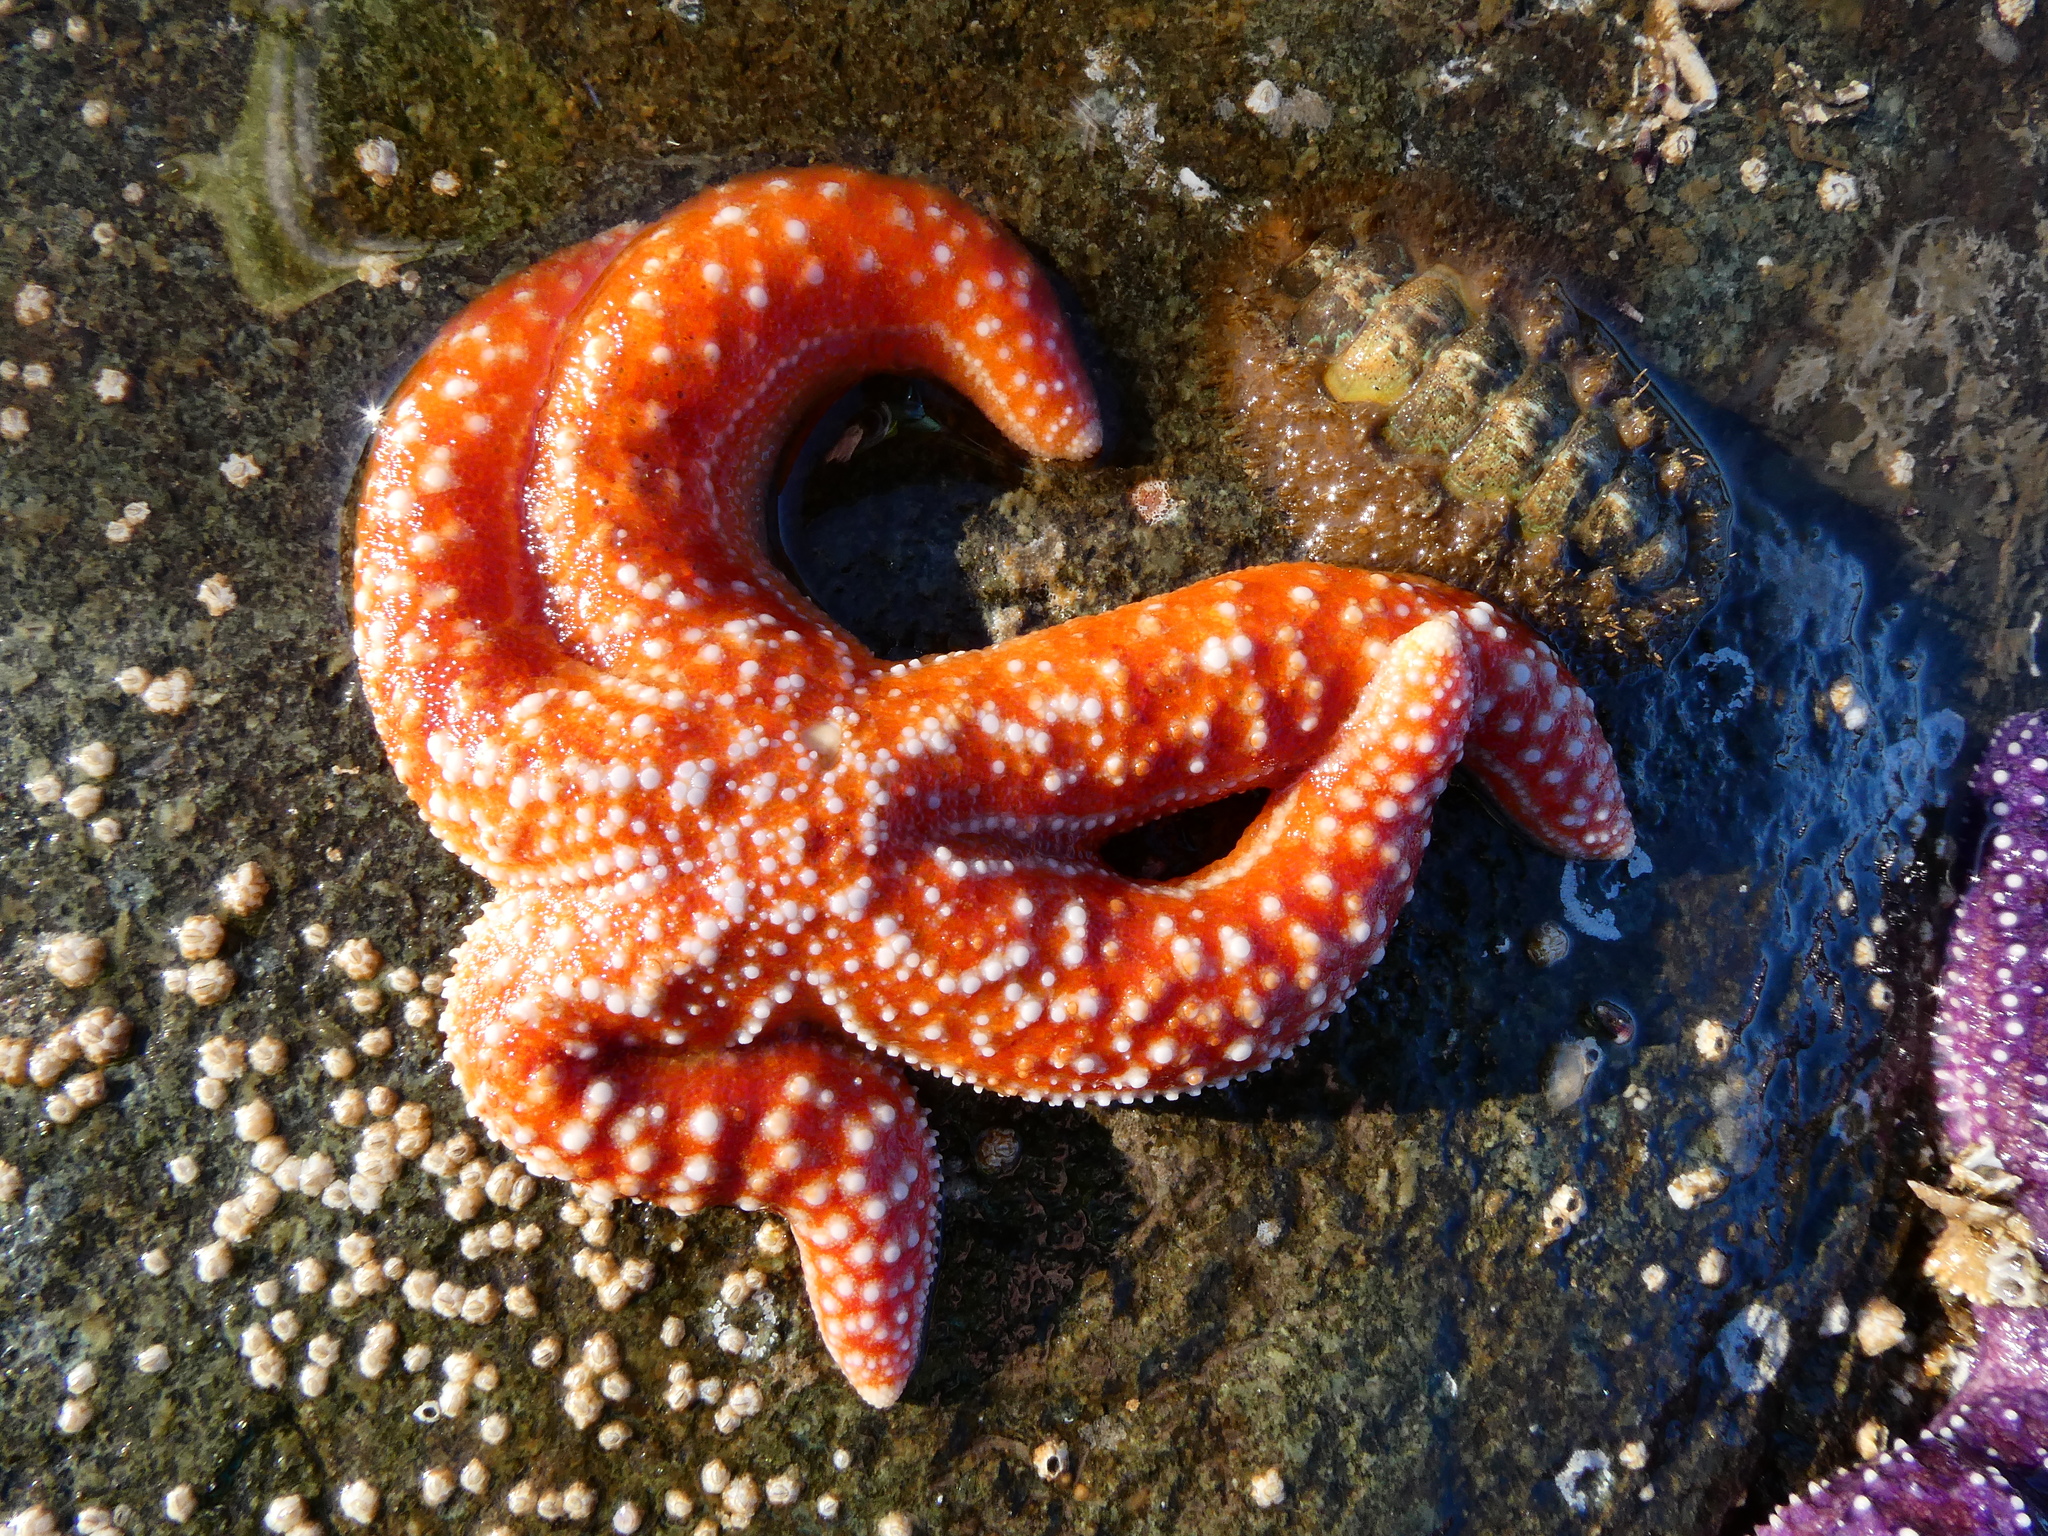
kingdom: Animalia
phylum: Echinodermata
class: Asteroidea
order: Forcipulatida
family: Asteriidae
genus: Evasterias
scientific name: Evasterias troschelii
